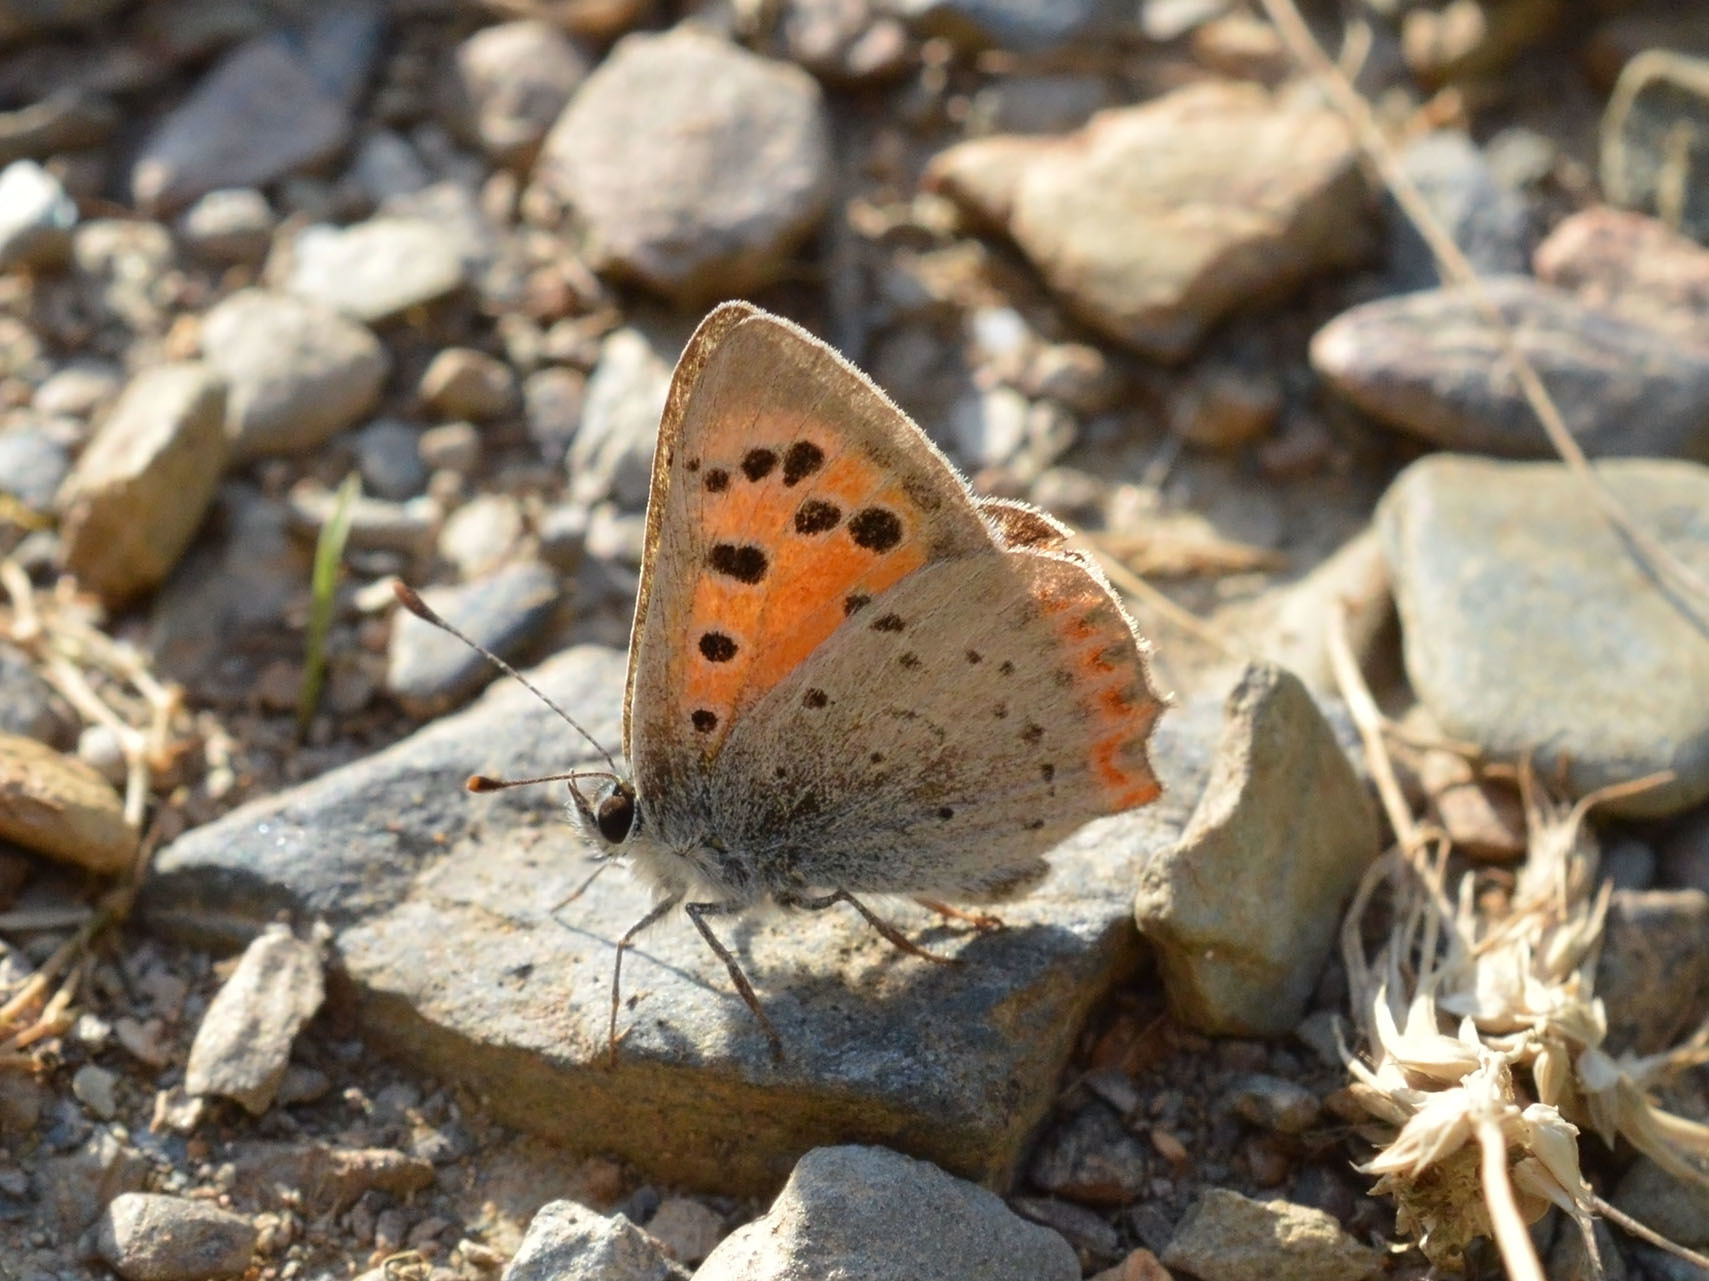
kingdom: Animalia
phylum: Arthropoda
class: Insecta
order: Lepidoptera
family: Lycaenidae
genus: Lycaena
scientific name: Lycaena phlaeas
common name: Small copper
